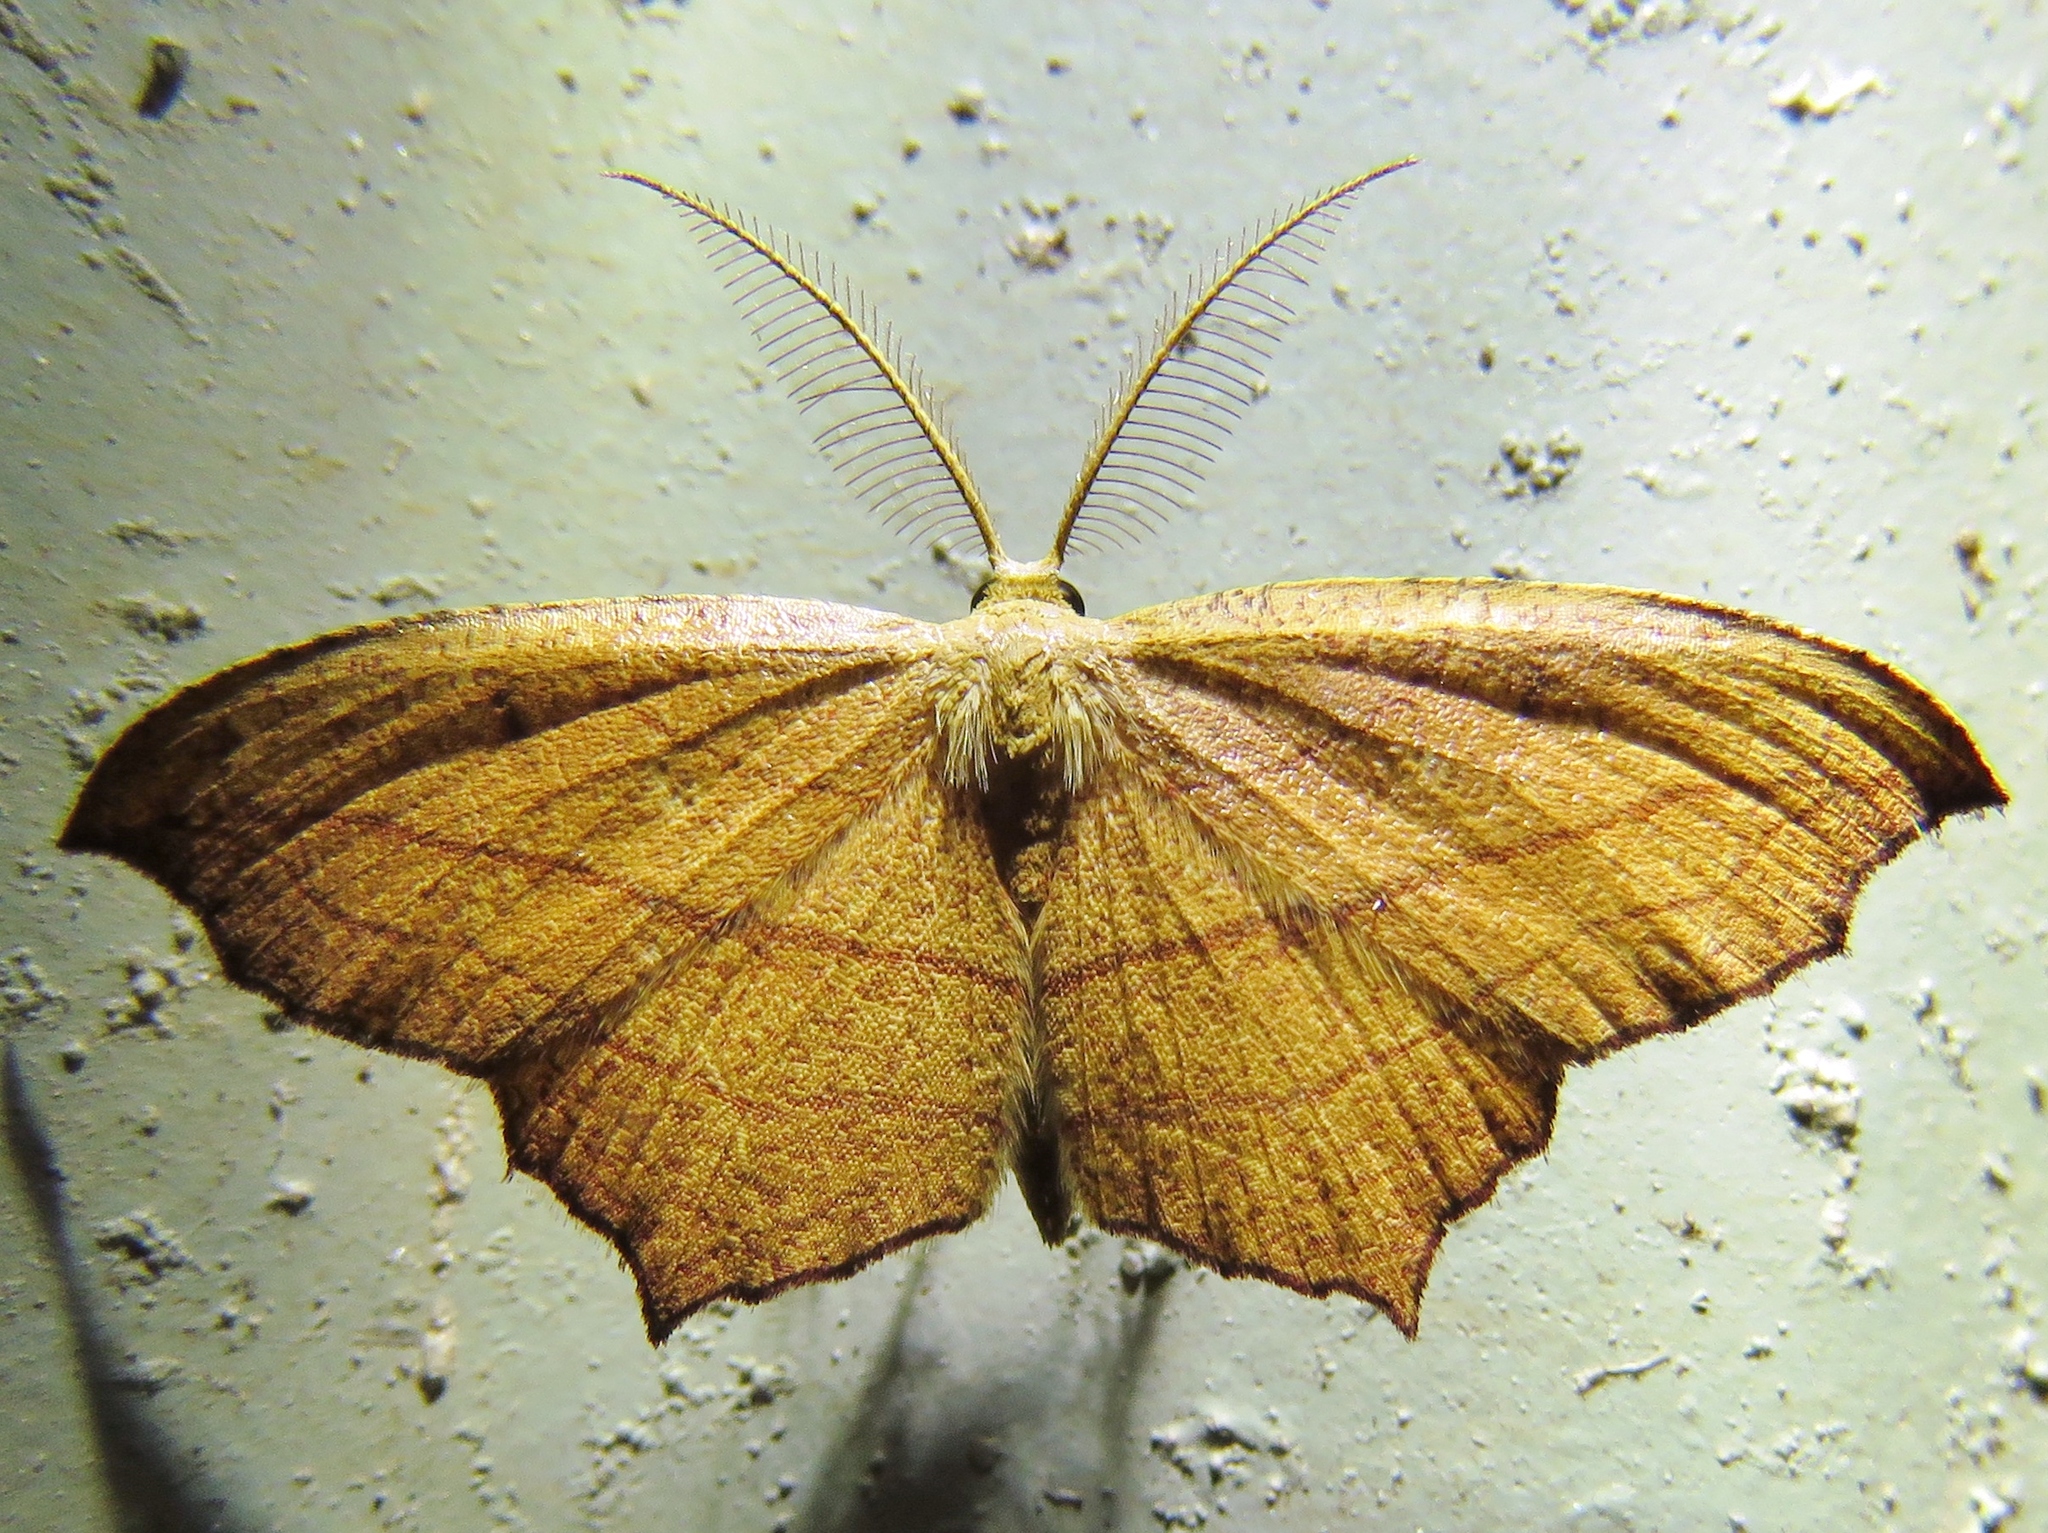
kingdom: Animalia
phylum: Arthropoda
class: Insecta
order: Lepidoptera
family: Geometridae
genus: Timandra
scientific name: Timandra amaturaria
